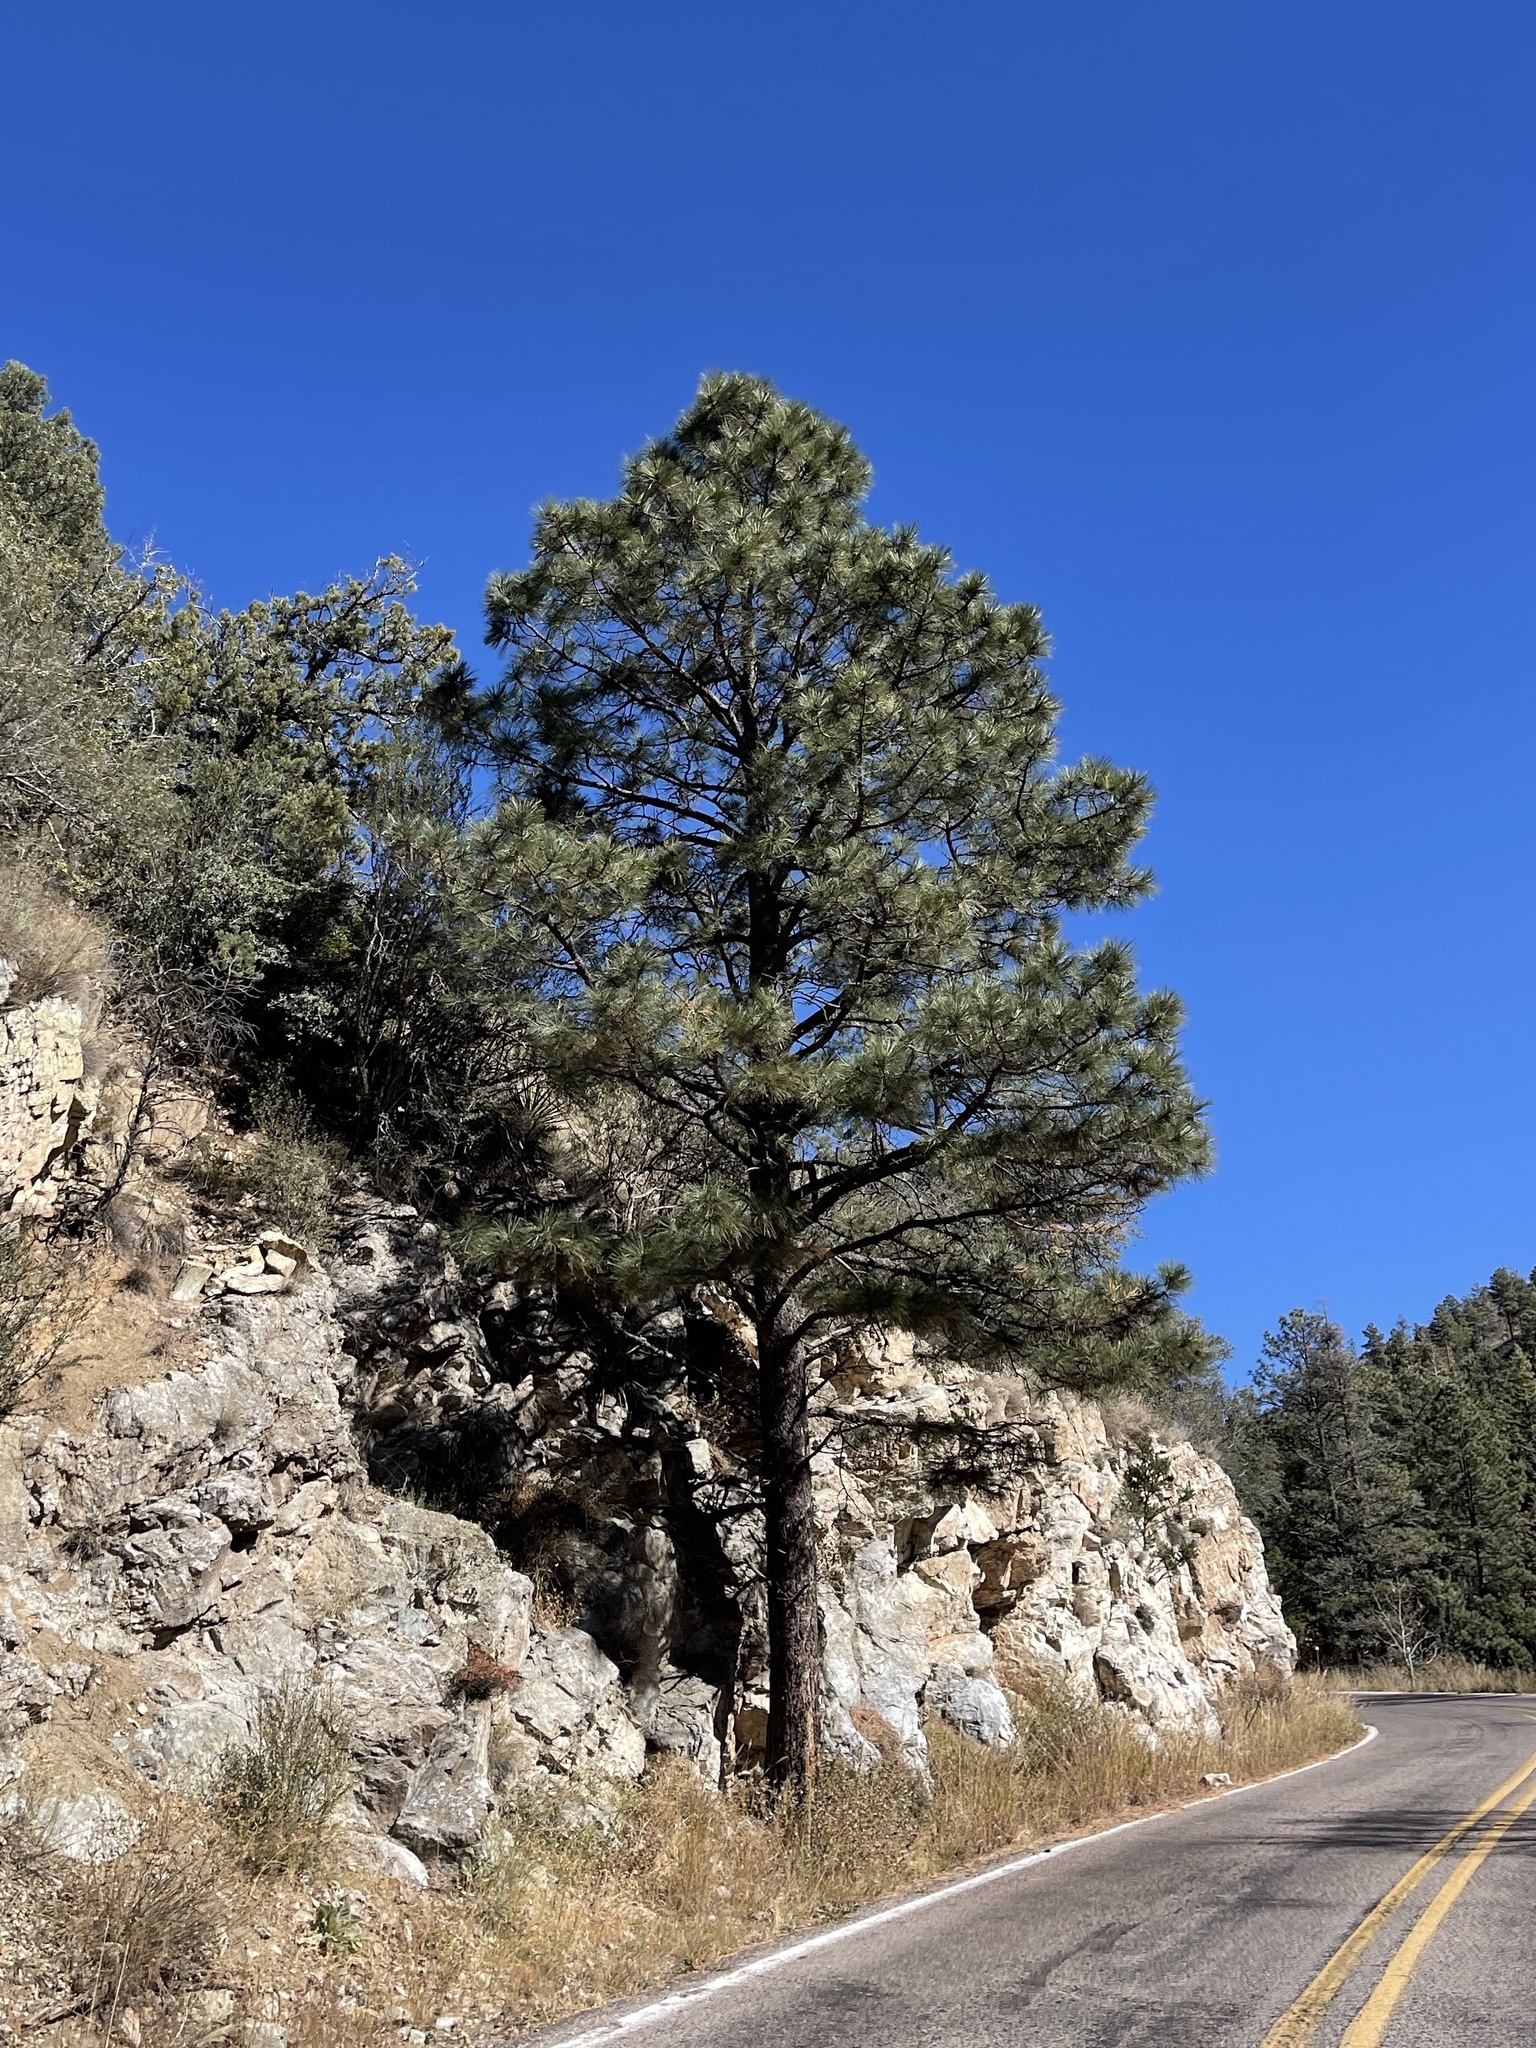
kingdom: Plantae
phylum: Tracheophyta
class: Pinopsida
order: Pinales
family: Pinaceae
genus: Pinus
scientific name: Pinus ponderosa
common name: Western yellow-pine
